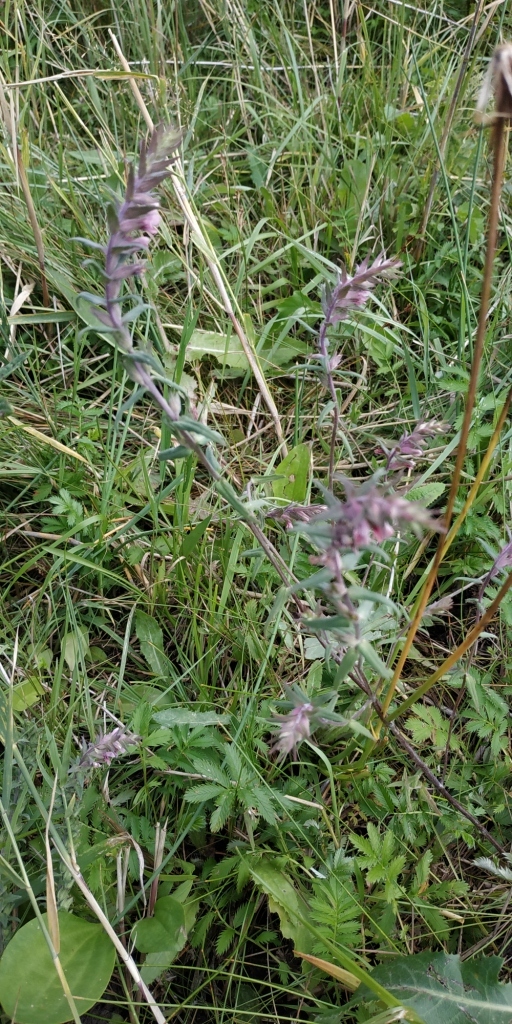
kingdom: Plantae
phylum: Tracheophyta
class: Magnoliopsida
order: Lamiales
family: Orobanchaceae
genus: Odontites
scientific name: Odontites vulgaris
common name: Broomrape
